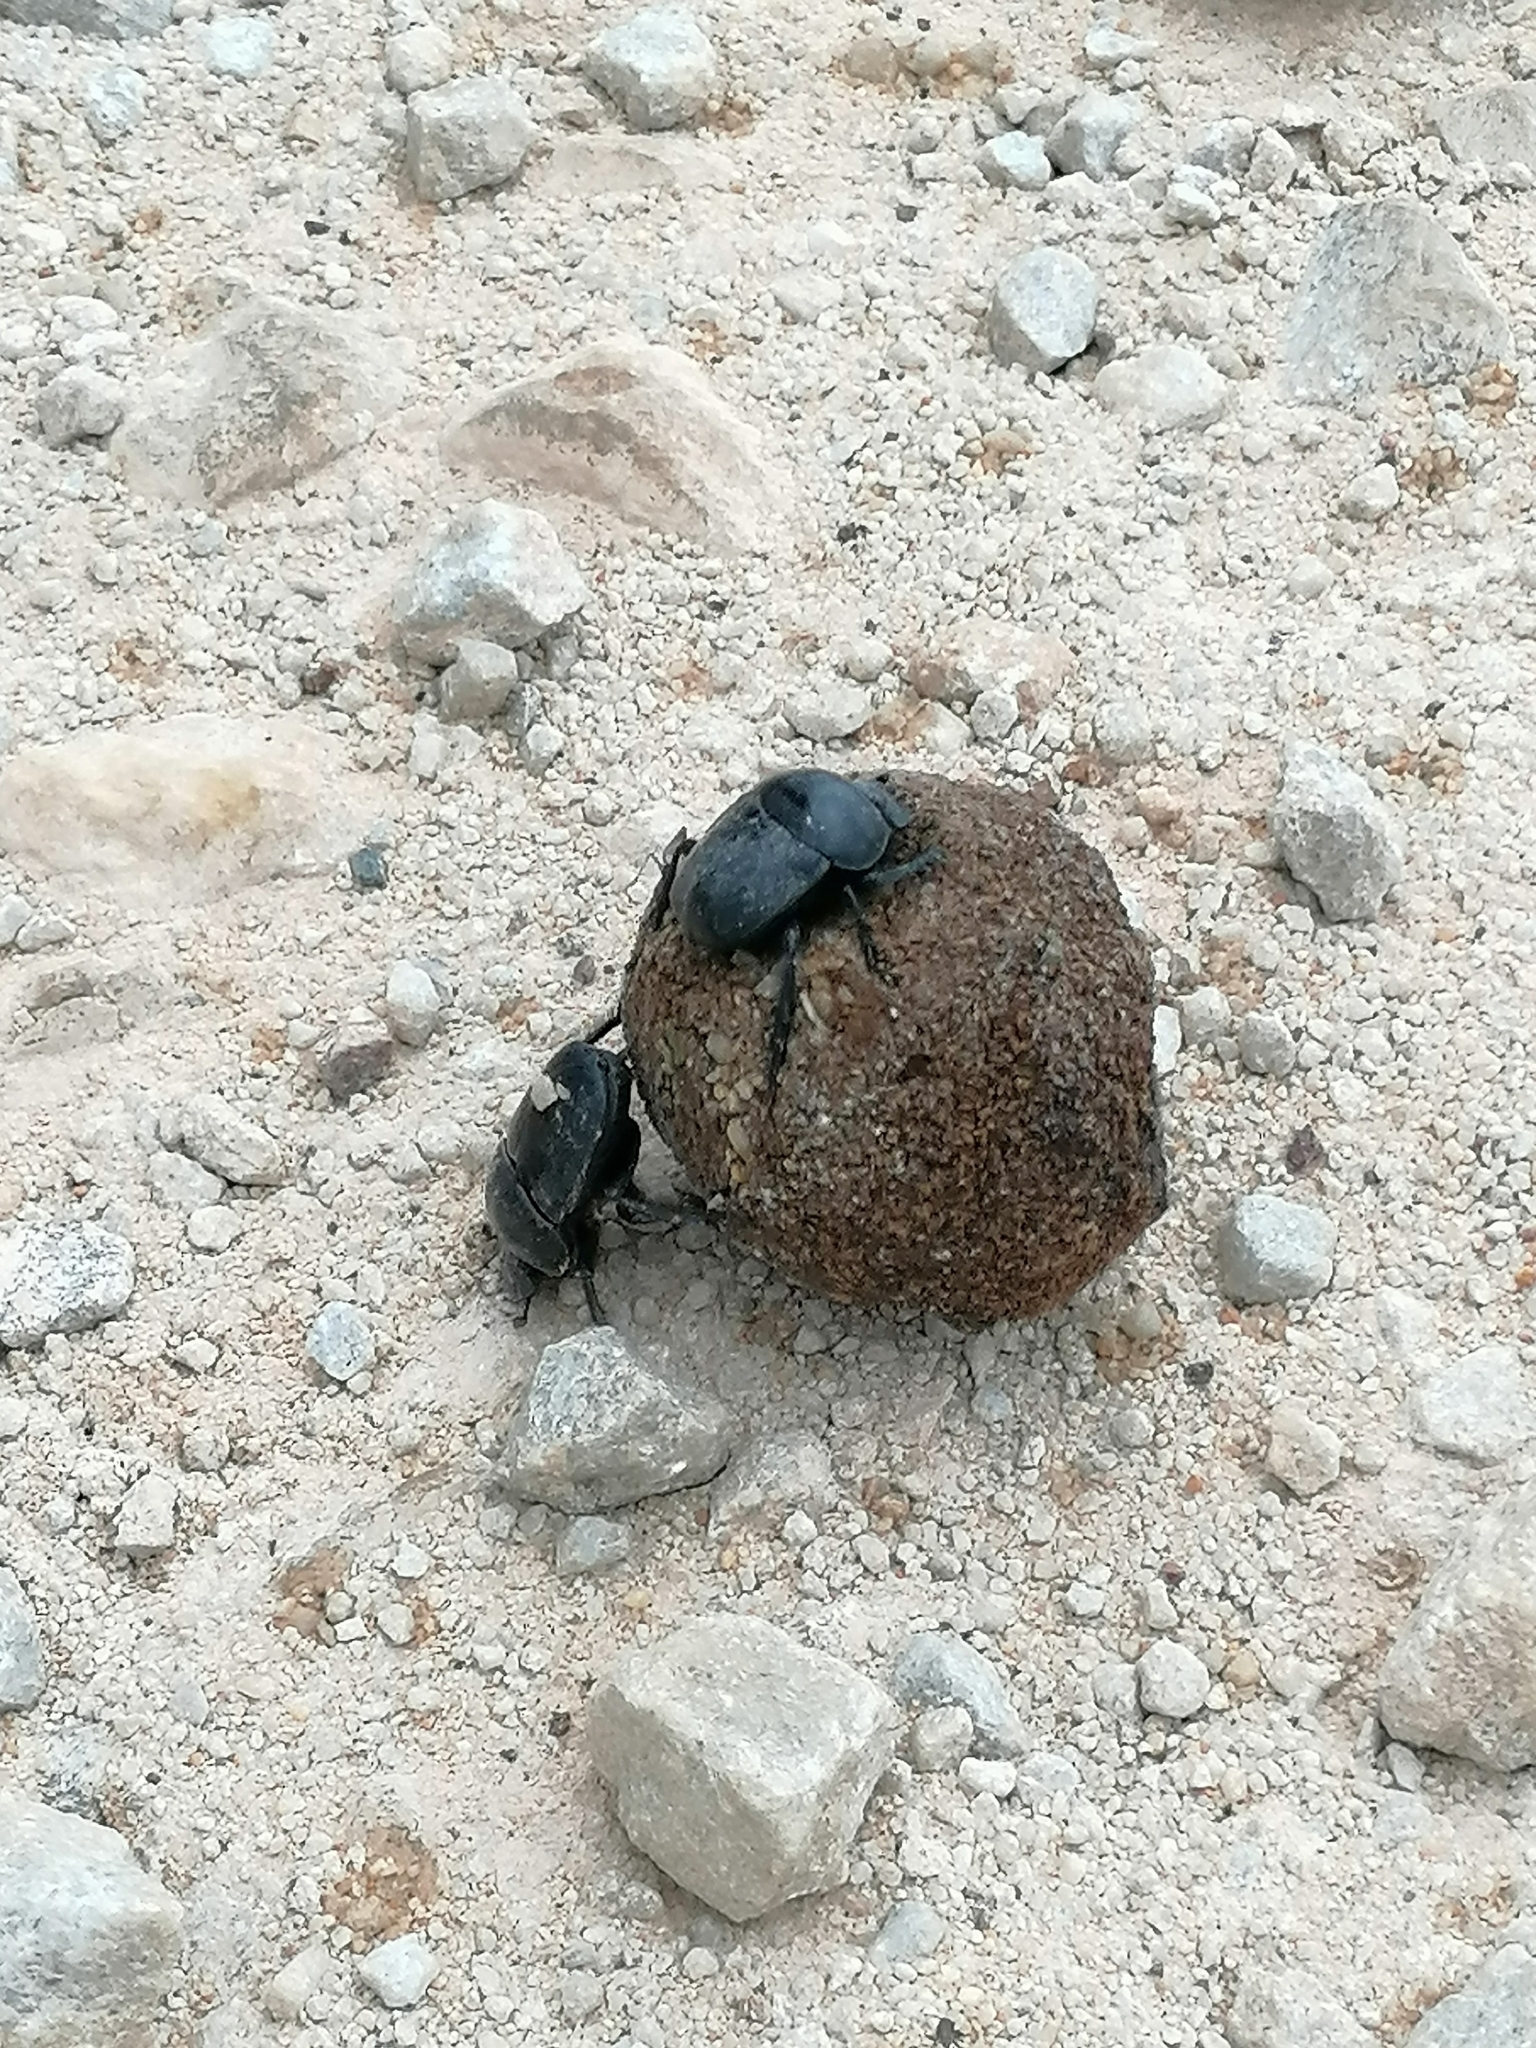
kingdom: Animalia
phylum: Arthropoda
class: Insecta
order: Coleoptera
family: Scarabaeidae
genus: Scarabaeus
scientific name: Scarabaeus convexus
